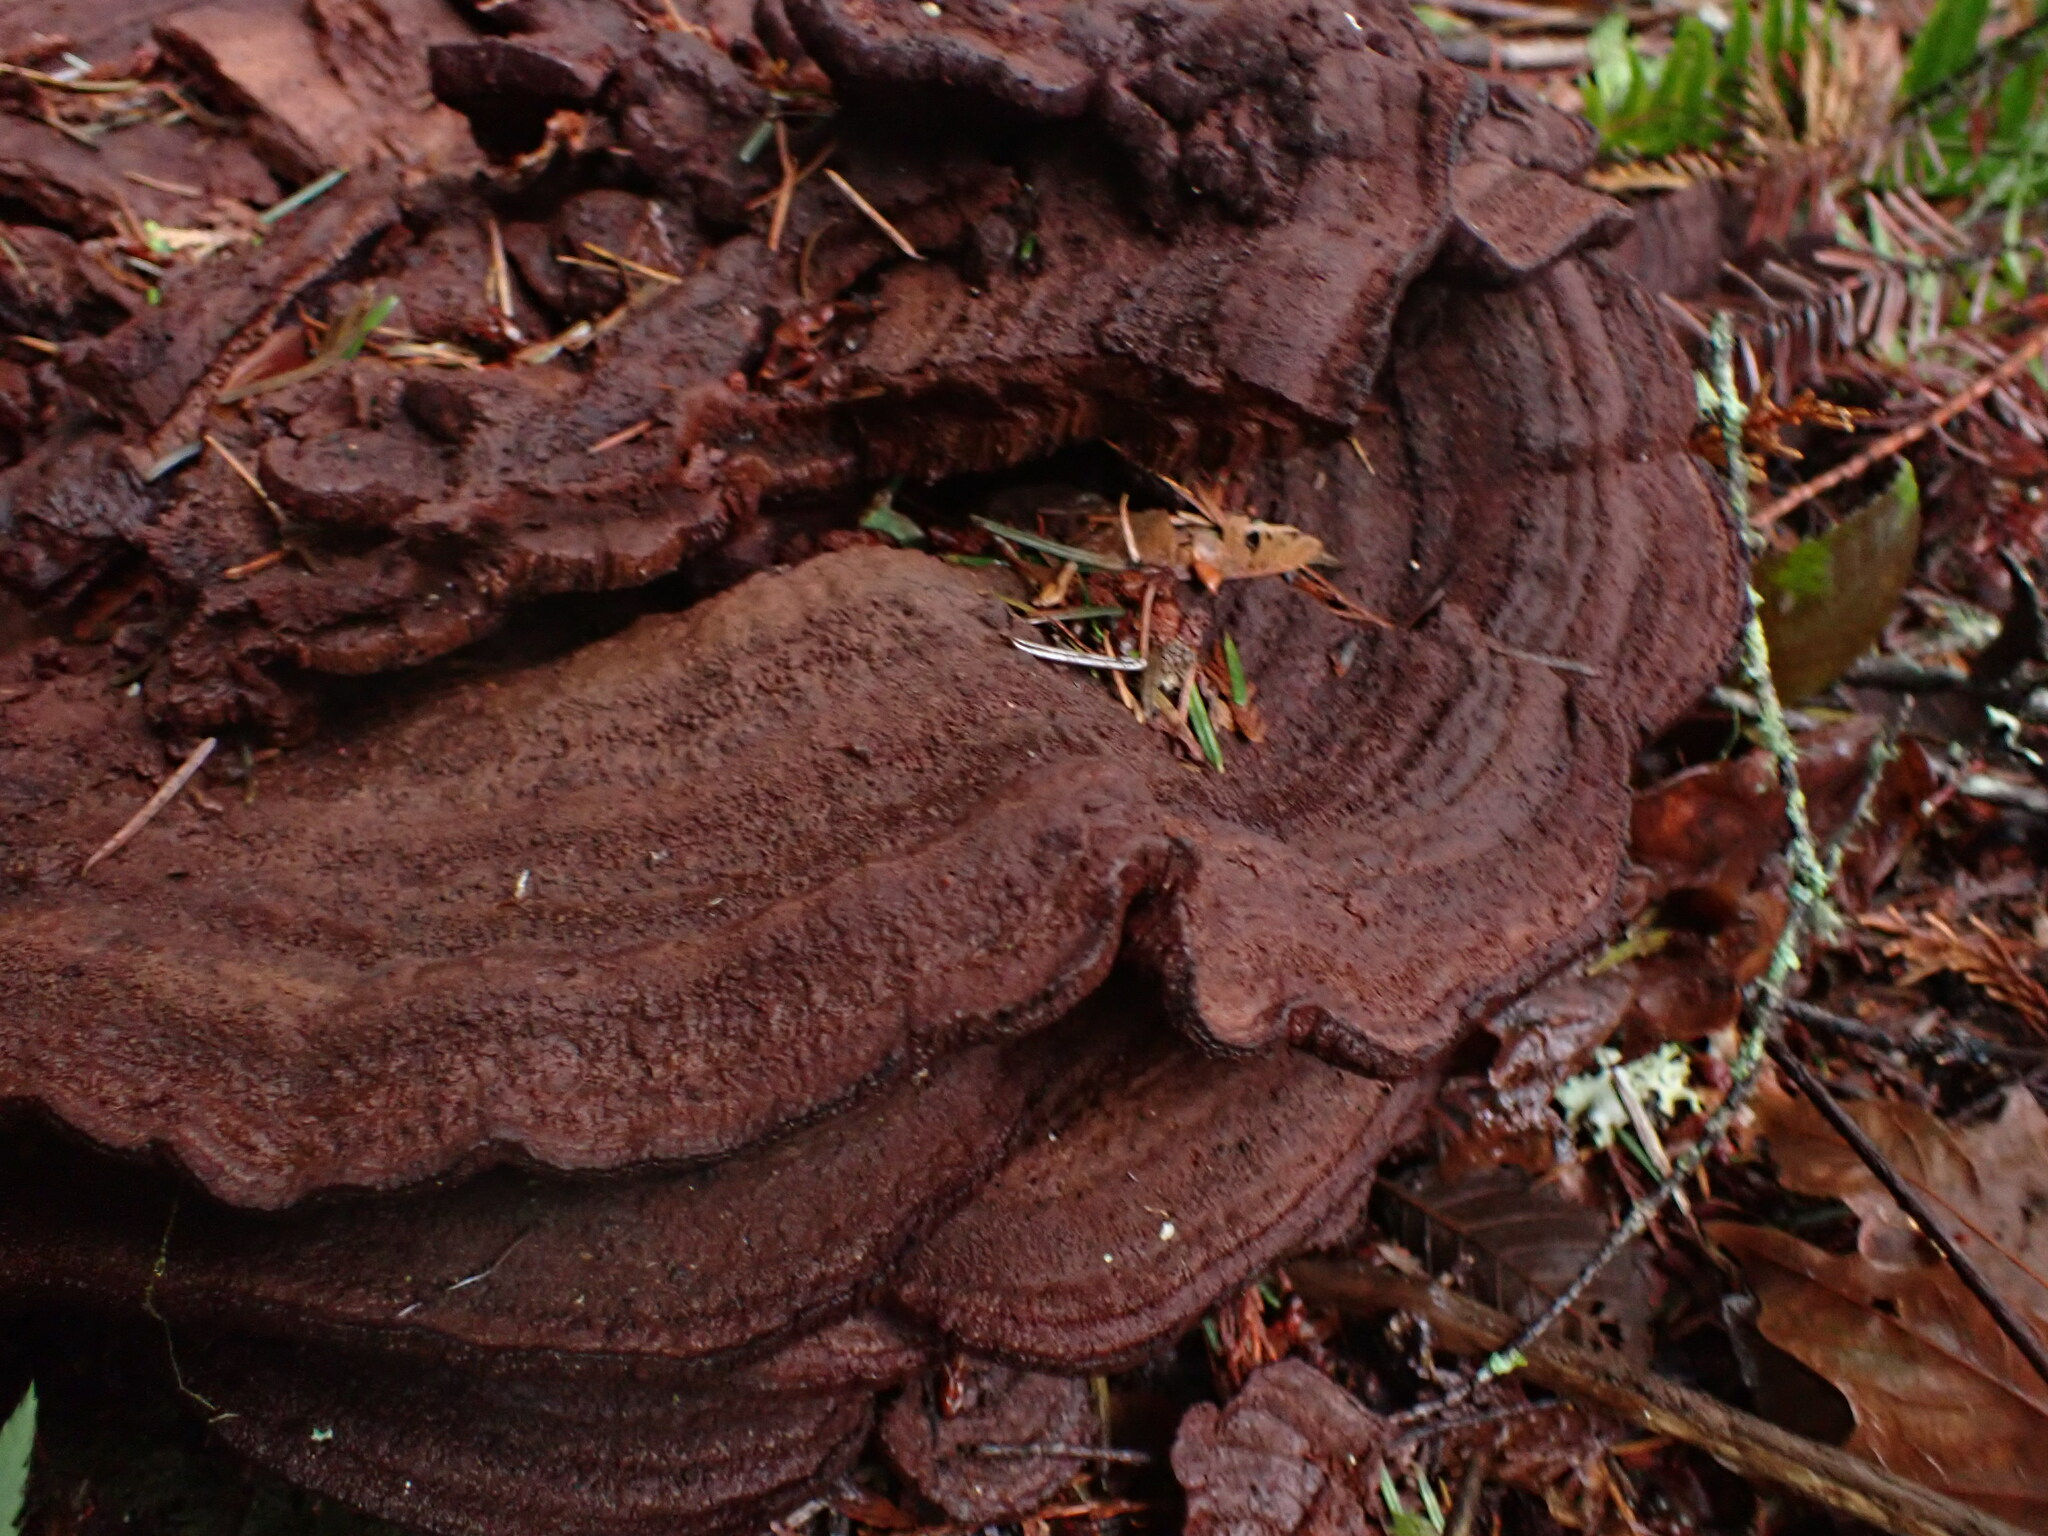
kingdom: Fungi
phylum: Basidiomycota
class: Agaricomycetes
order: Polyporales
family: Laetiporaceae
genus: Phaeolus
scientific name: Phaeolus schweinitzii
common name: Dyer's mazegill
